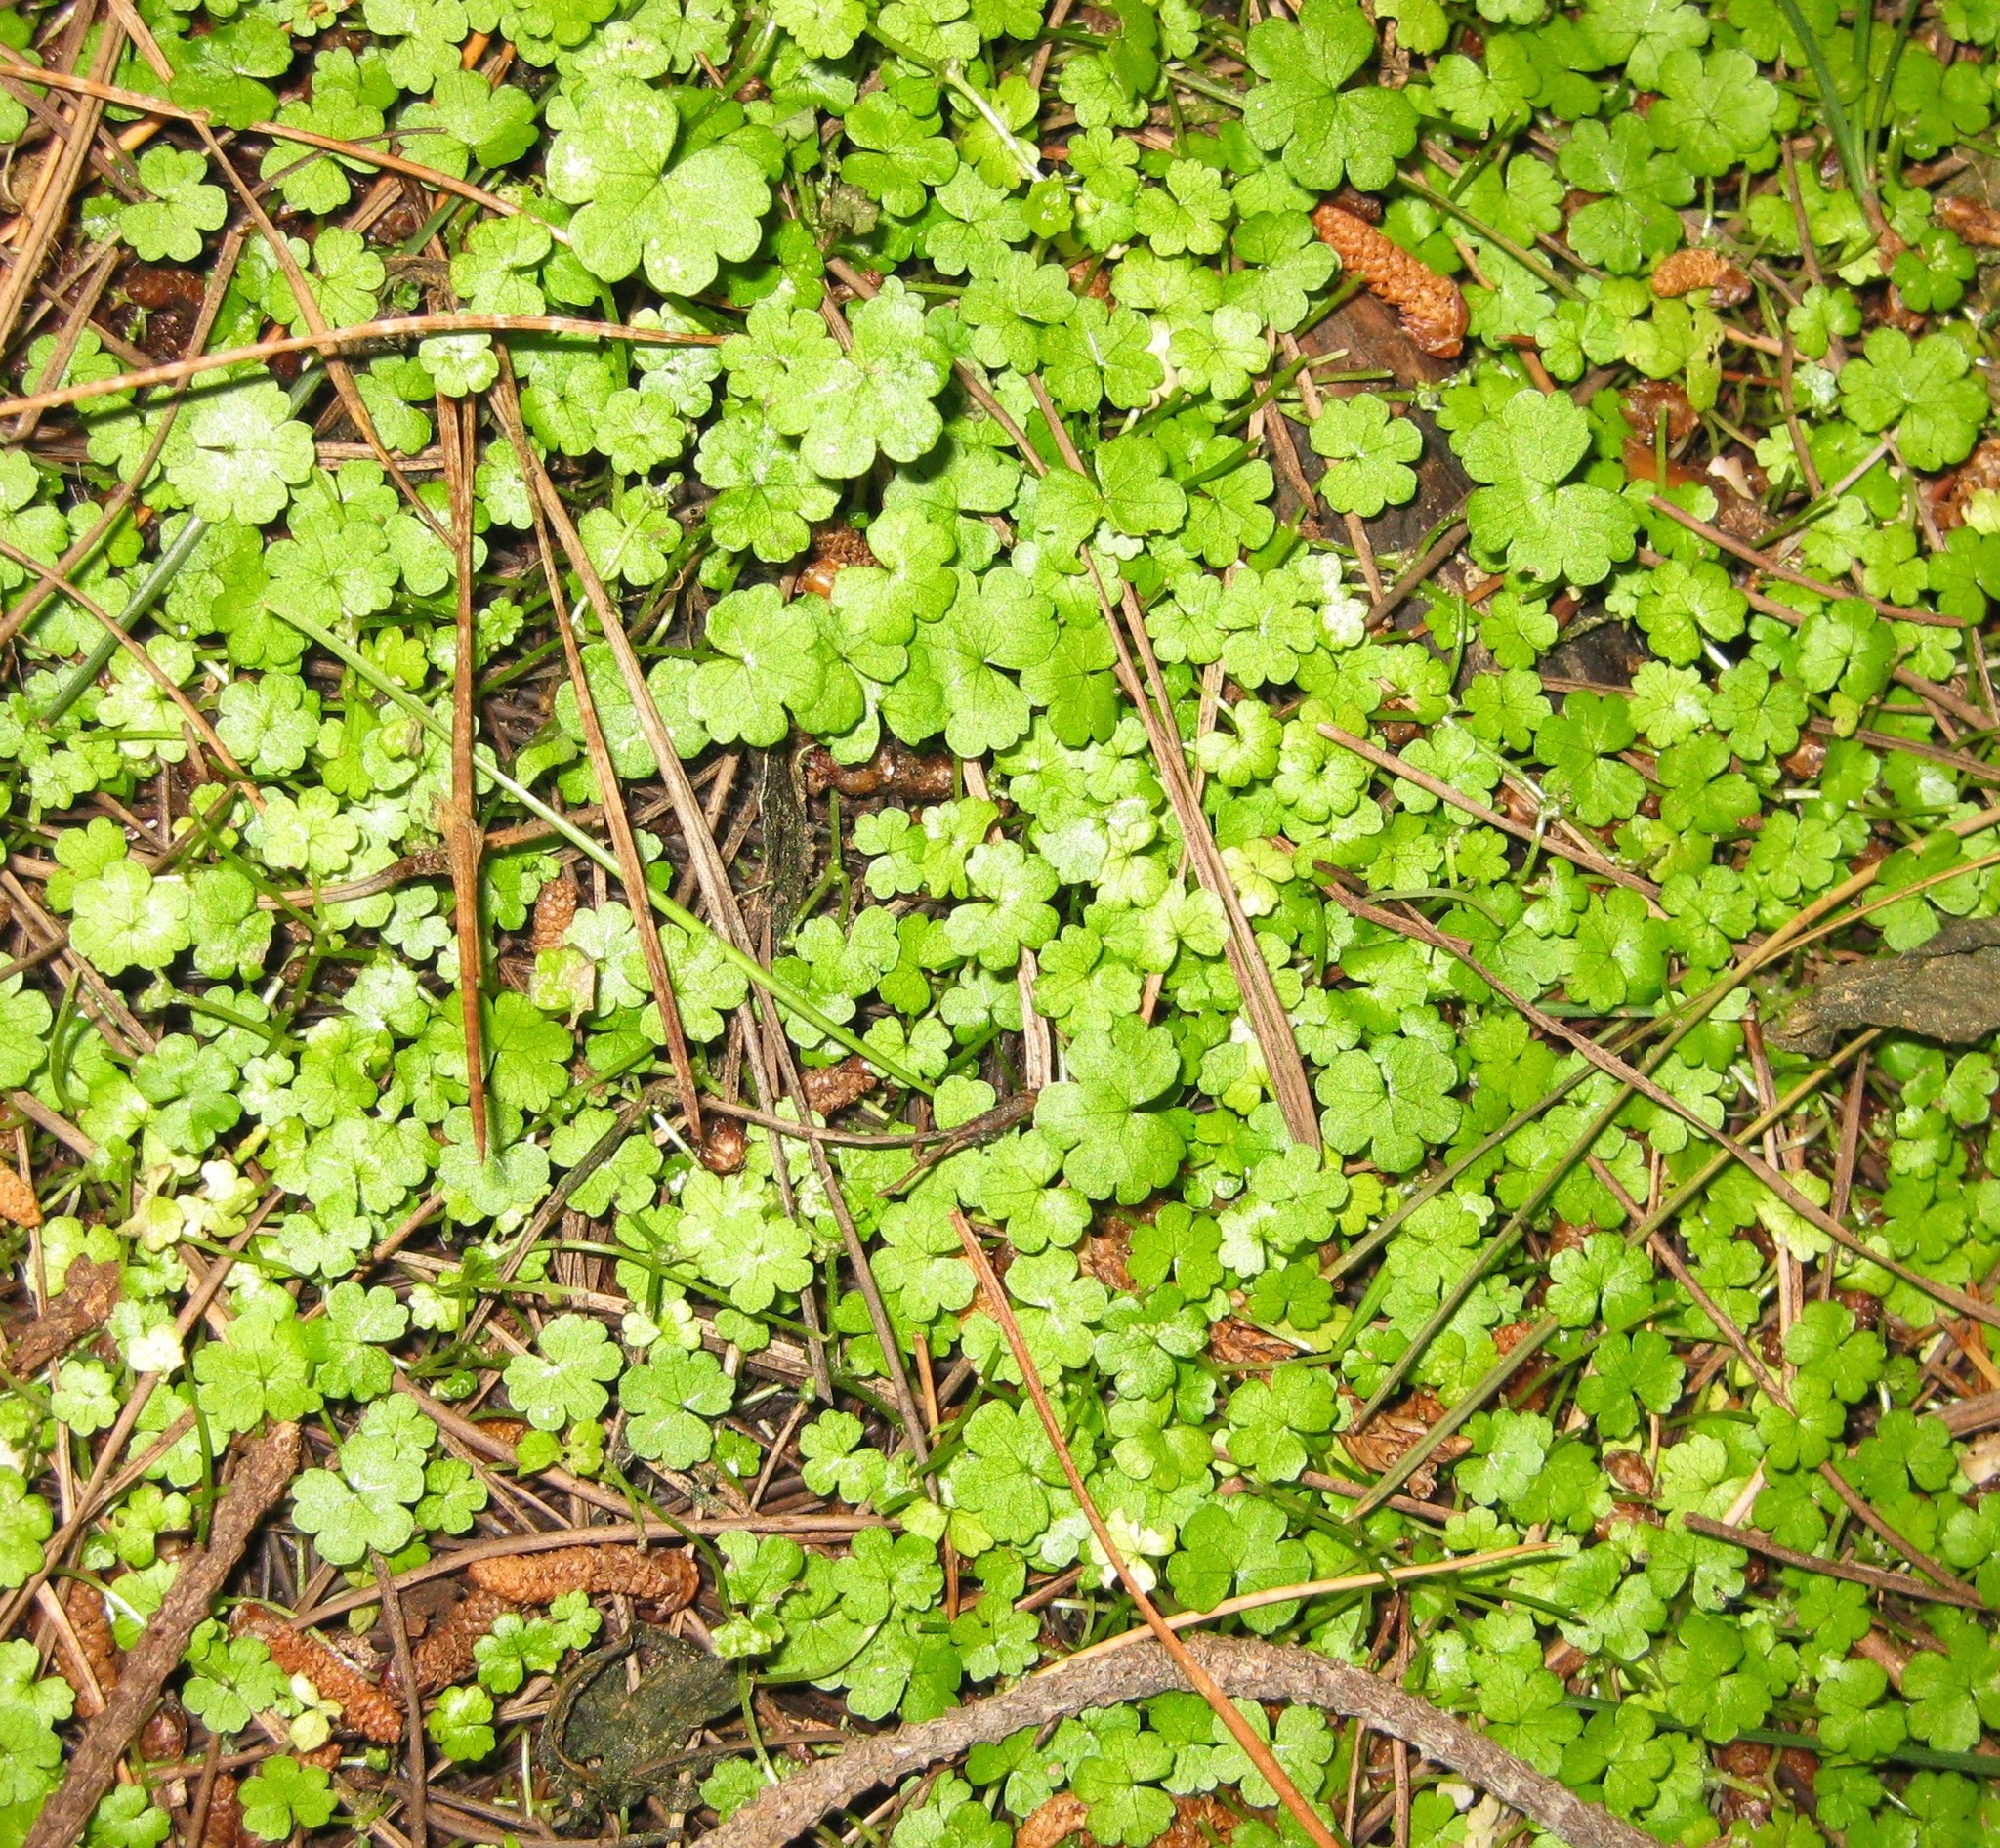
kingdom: Plantae
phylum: Tracheophyta
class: Magnoliopsida
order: Apiales
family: Araliaceae
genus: Hydrocotyle
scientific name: Hydrocotyle heteromeria
